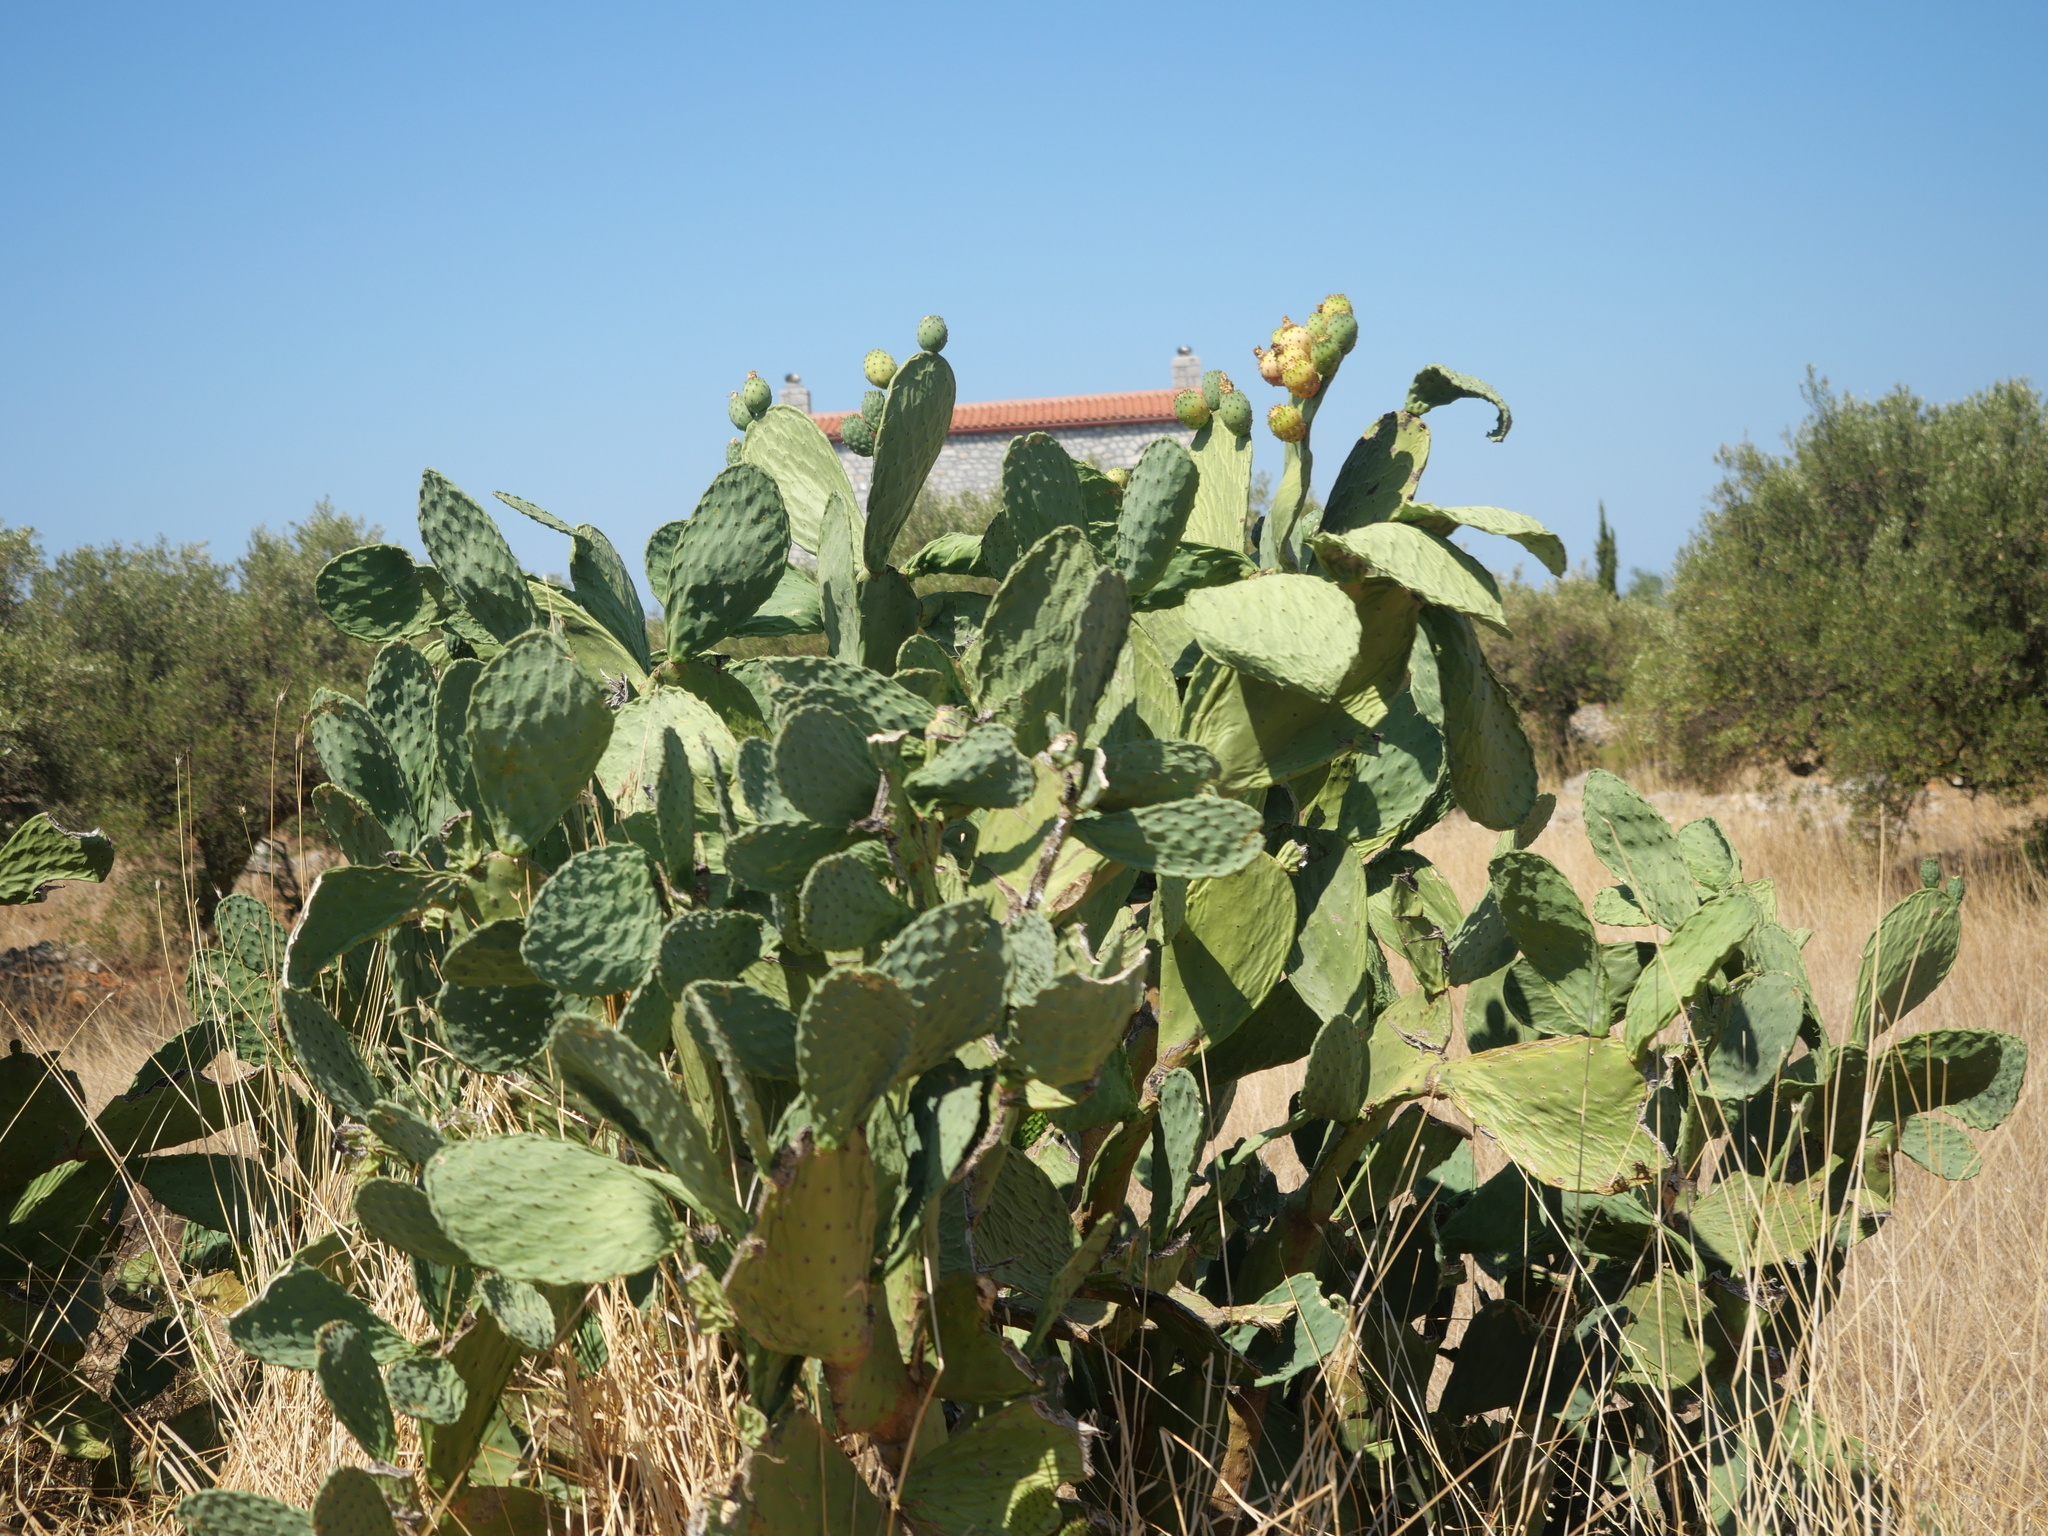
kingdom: Plantae
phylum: Tracheophyta
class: Magnoliopsida
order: Caryophyllales
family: Cactaceae
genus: Opuntia
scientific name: Opuntia ficus-indica
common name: Barbary fig
